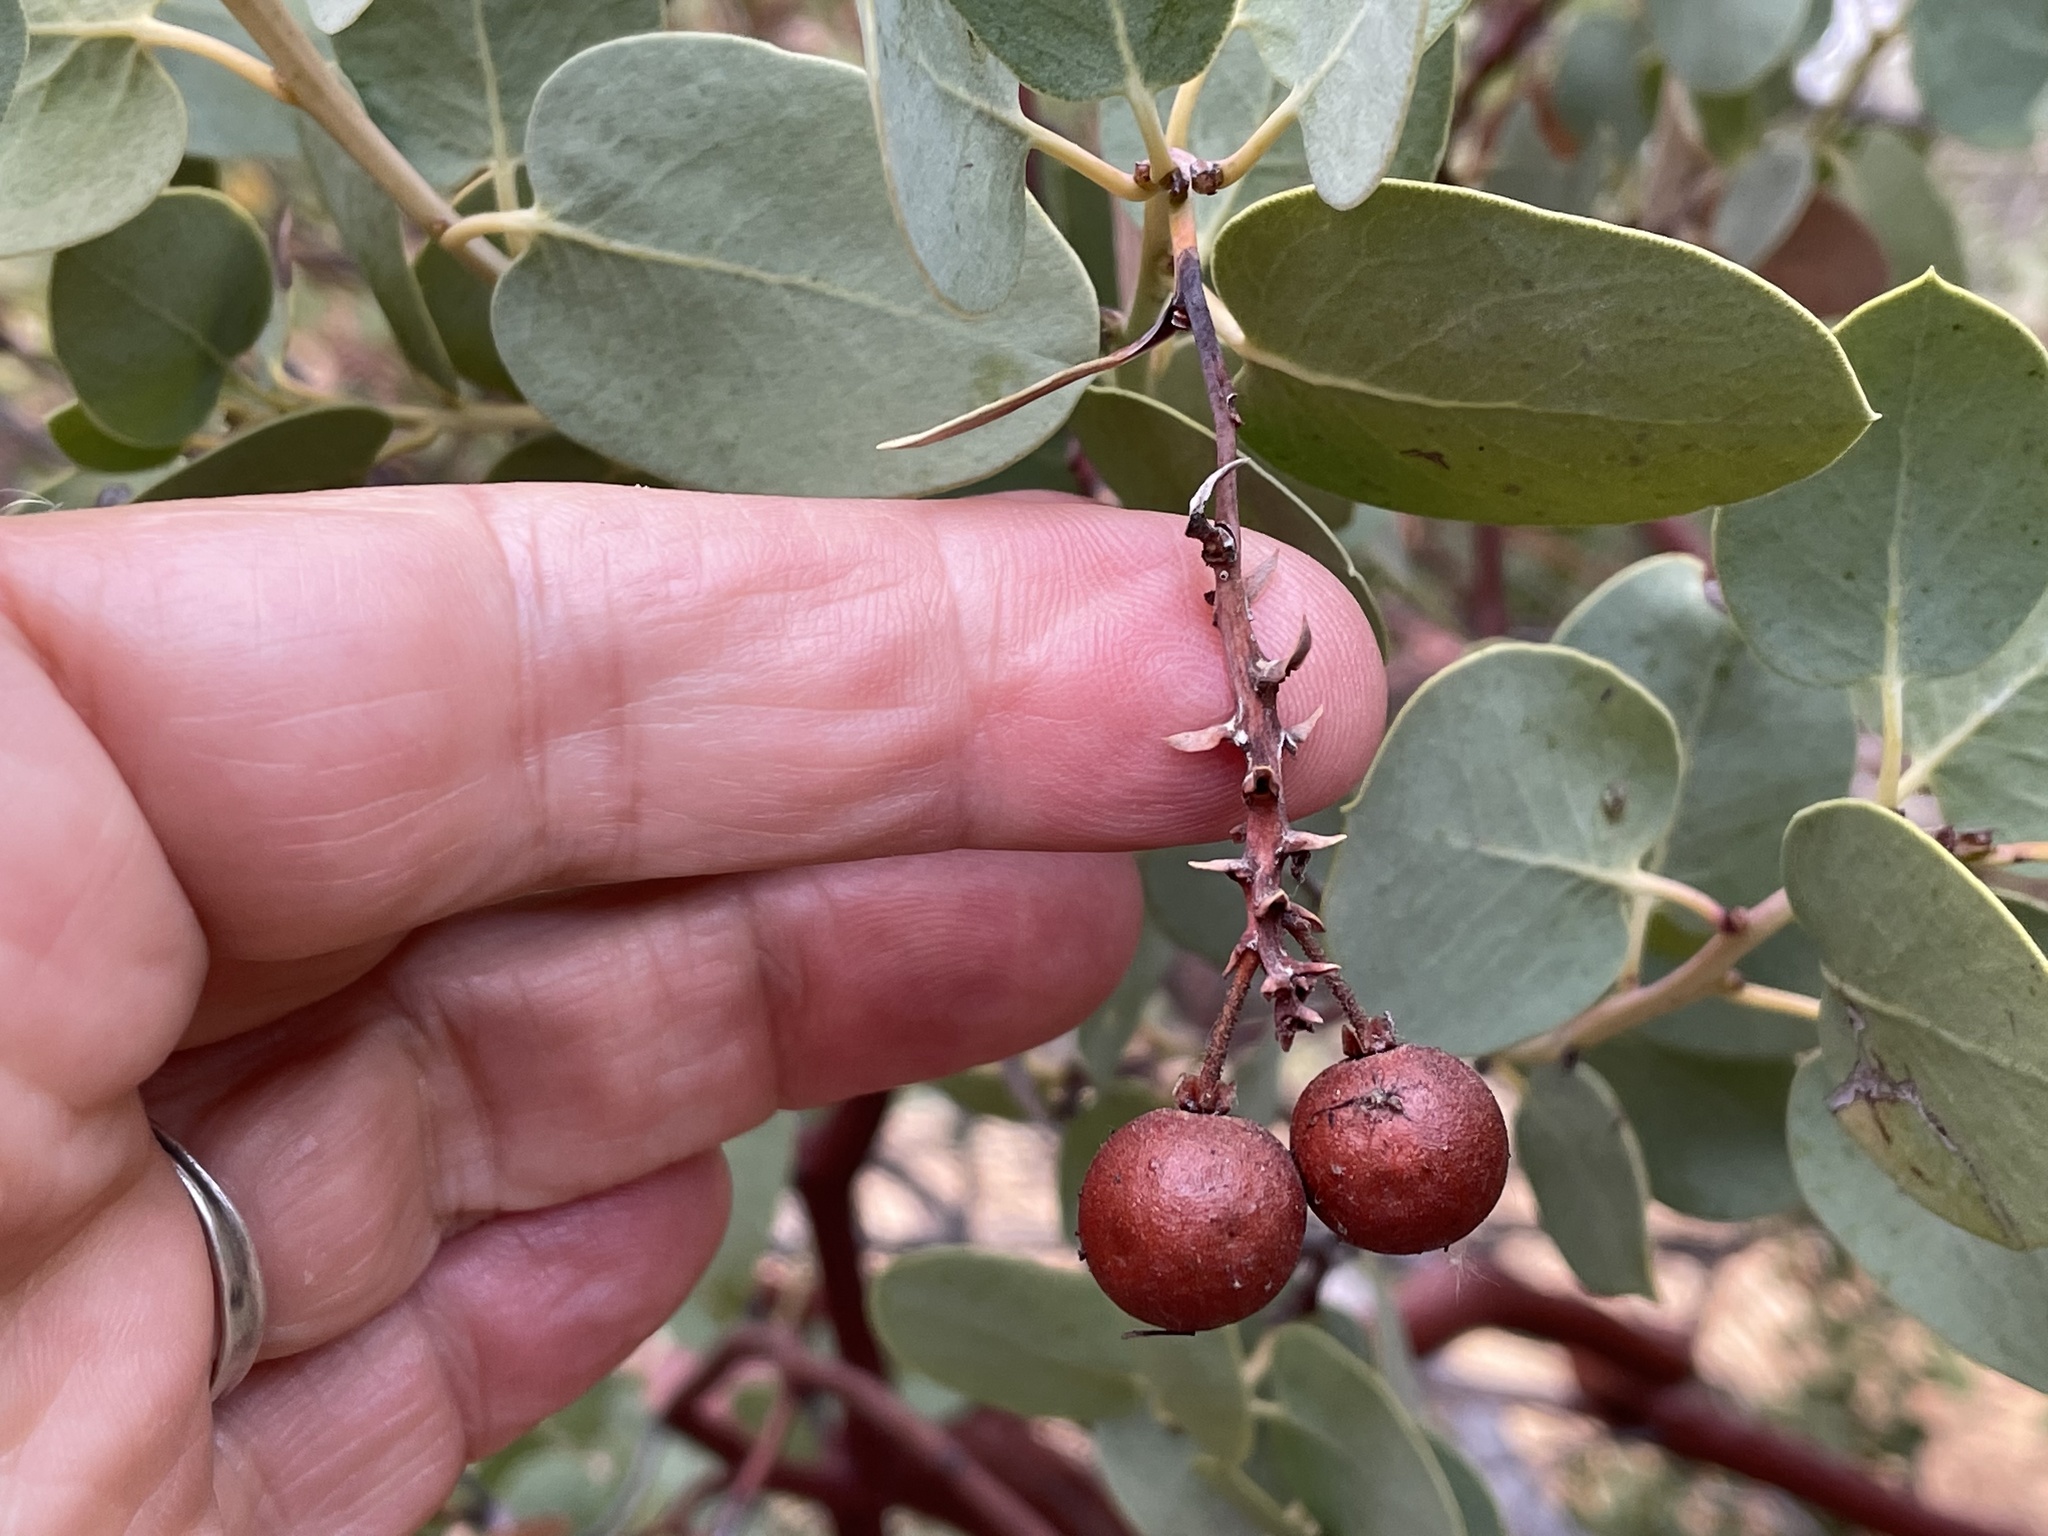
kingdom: Plantae
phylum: Tracheophyta
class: Magnoliopsida
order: Ericales
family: Ericaceae
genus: Arctostaphylos
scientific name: Arctostaphylos glauca
